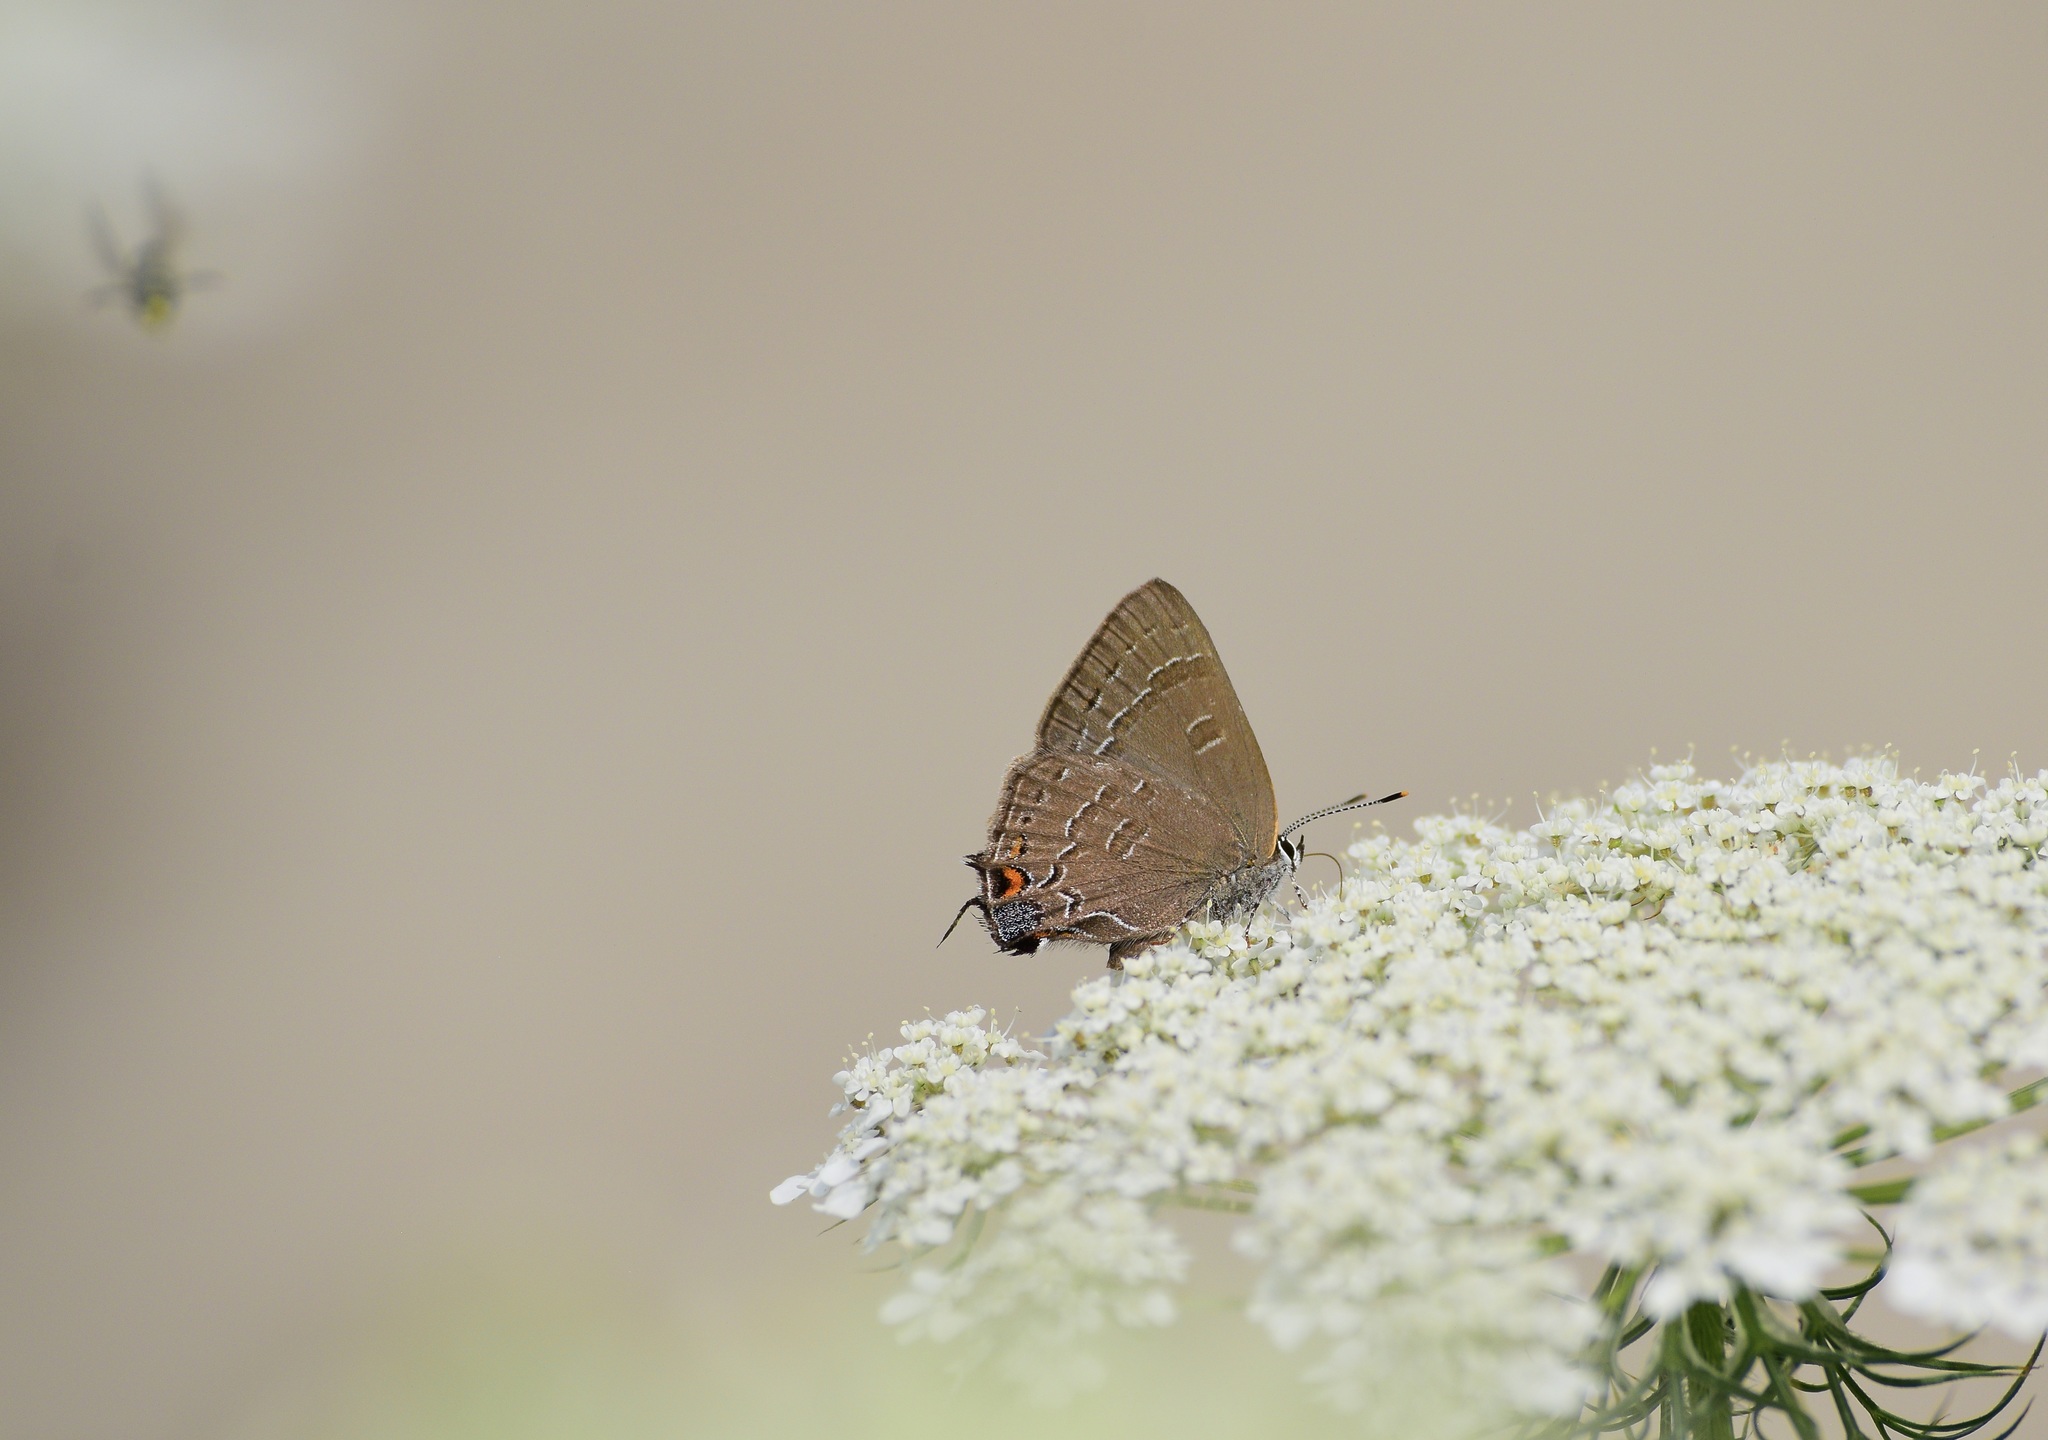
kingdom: Animalia
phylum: Arthropoda
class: Insecta
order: Lepidoptera
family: Lycaenidae
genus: Satyrium
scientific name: Satyrium calanus
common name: Banded hairstreak
